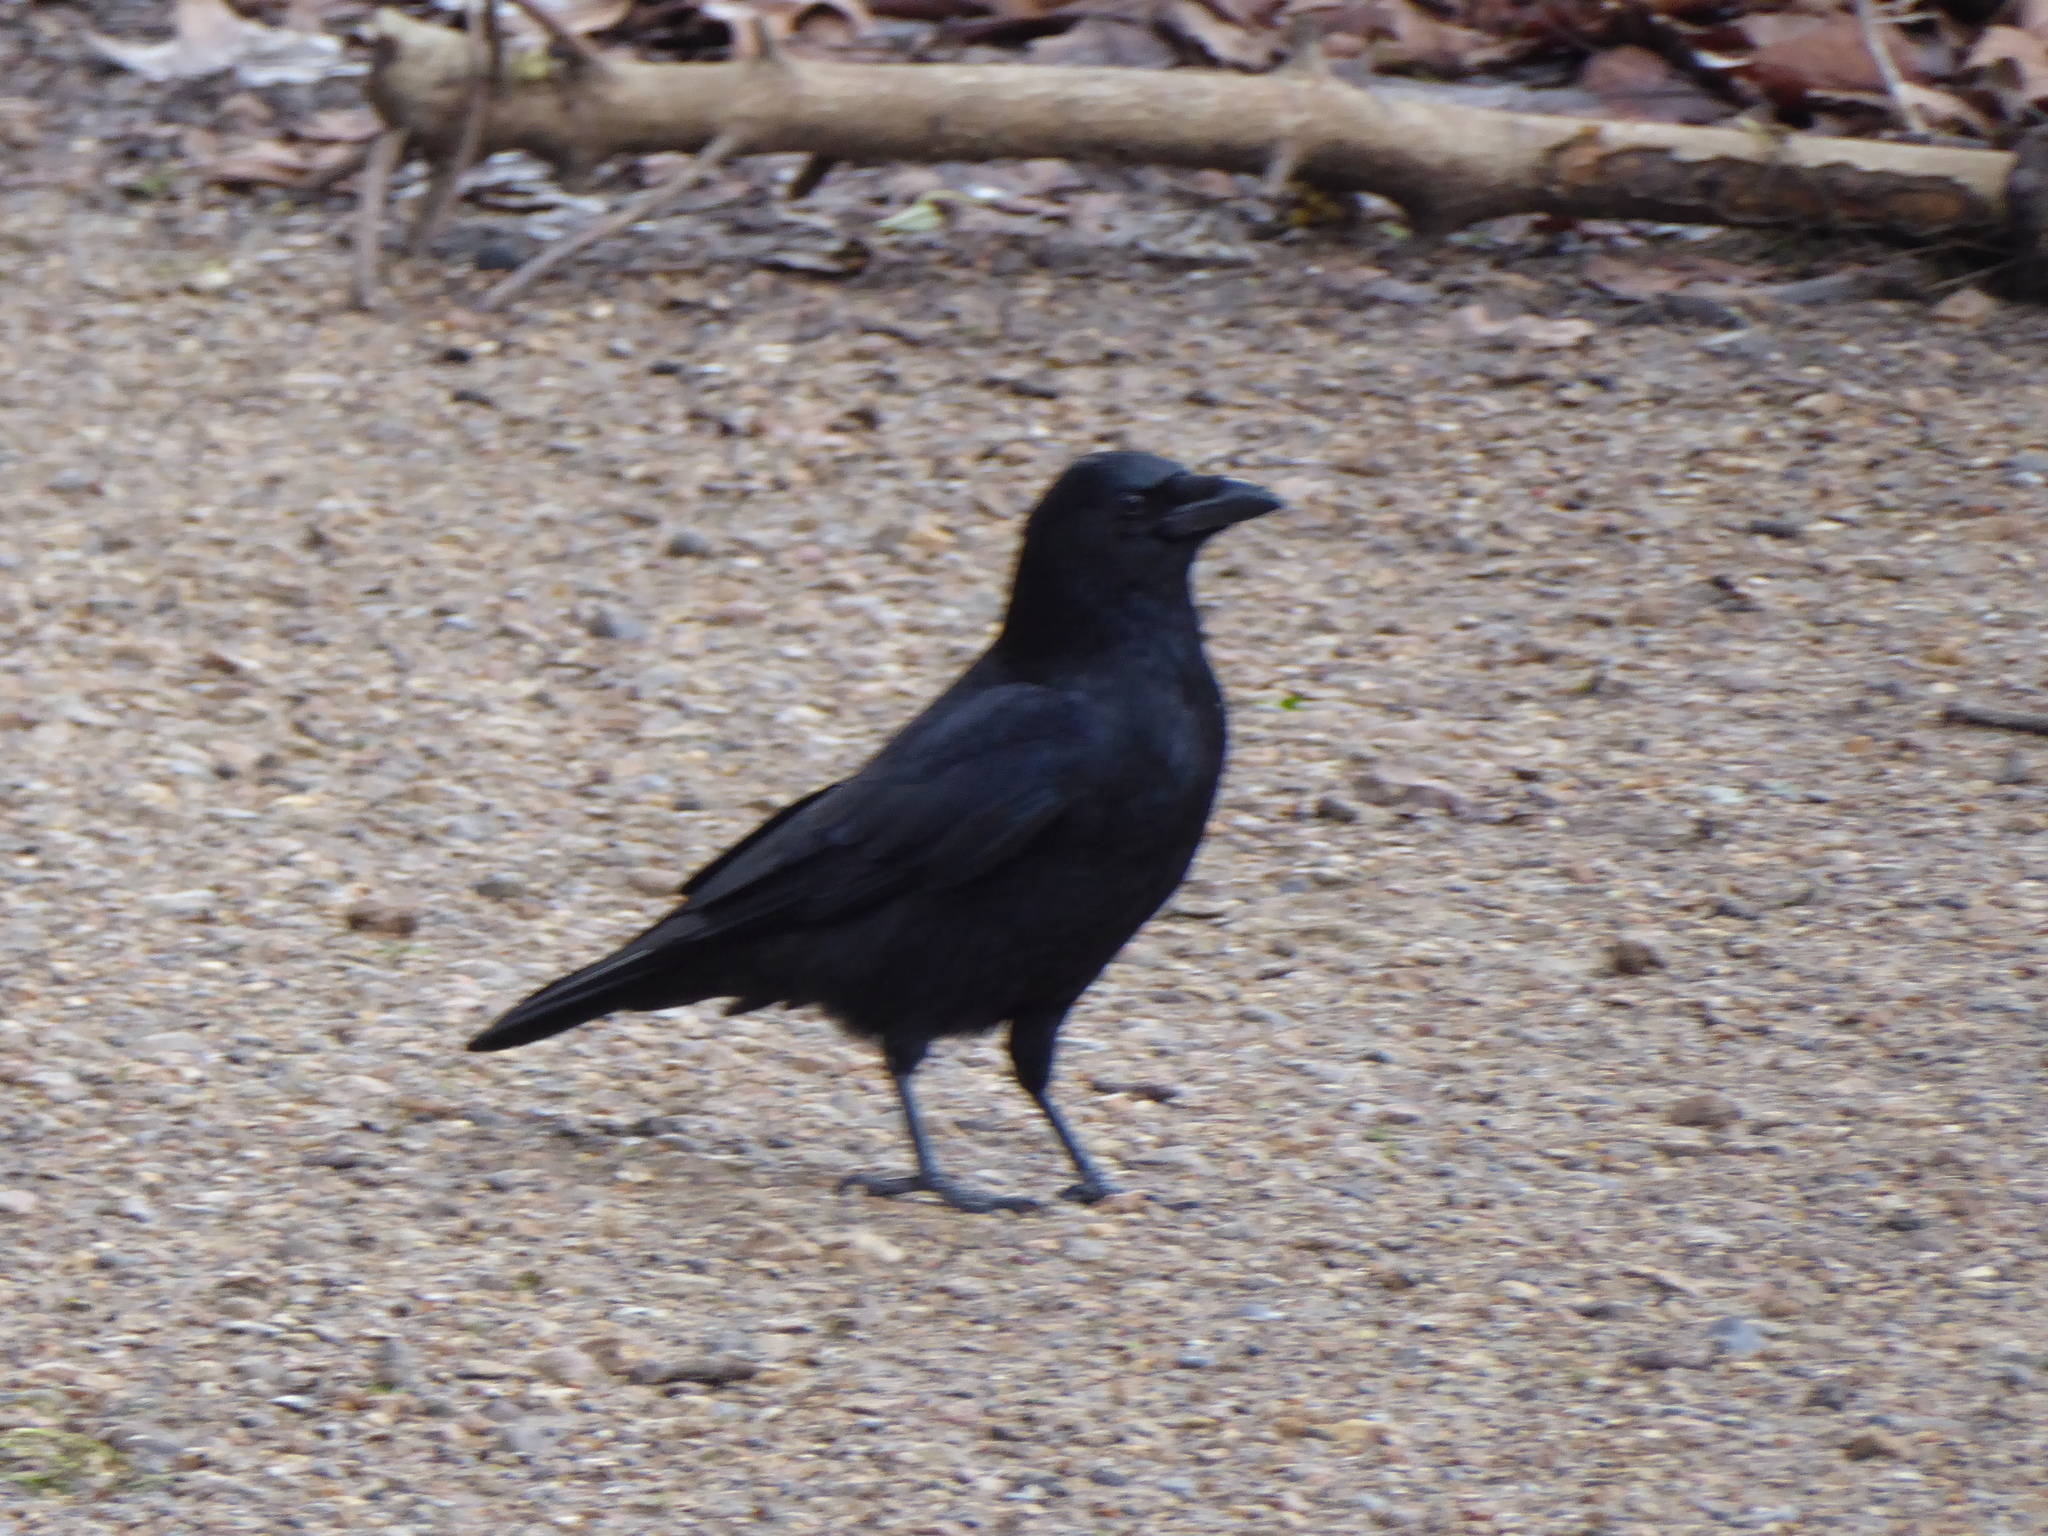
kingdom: Animalia
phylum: Chordata
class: Aves
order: Passeriformes
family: Corvidae
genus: Corvus
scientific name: Corvus corone
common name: Carrion crow
